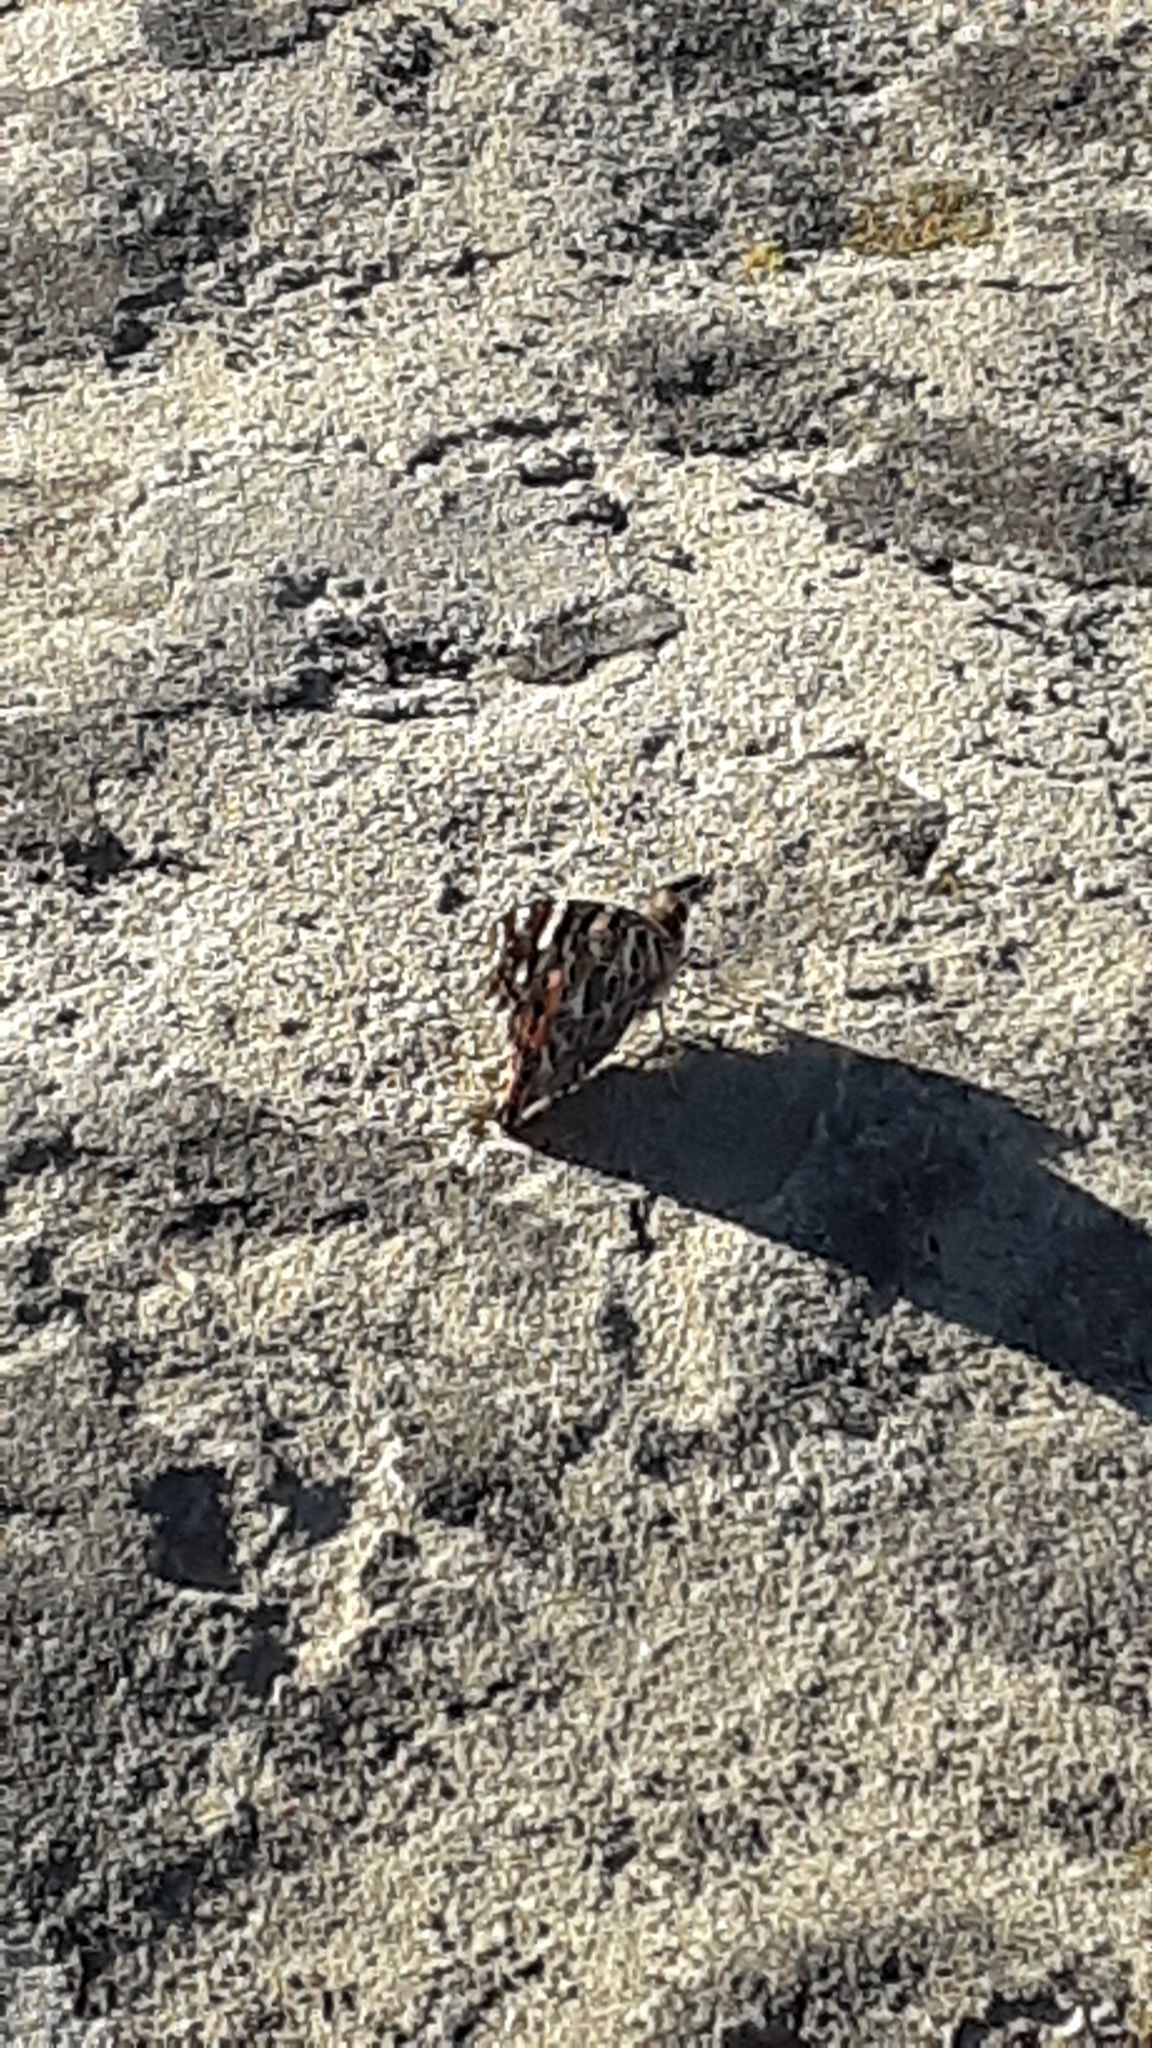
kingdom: Animalia
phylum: Arthropoda
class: Insecta
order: Lepidoptera
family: Nymphalidae
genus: Vanessa
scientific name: Vanessa cardui
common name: Painted lady
